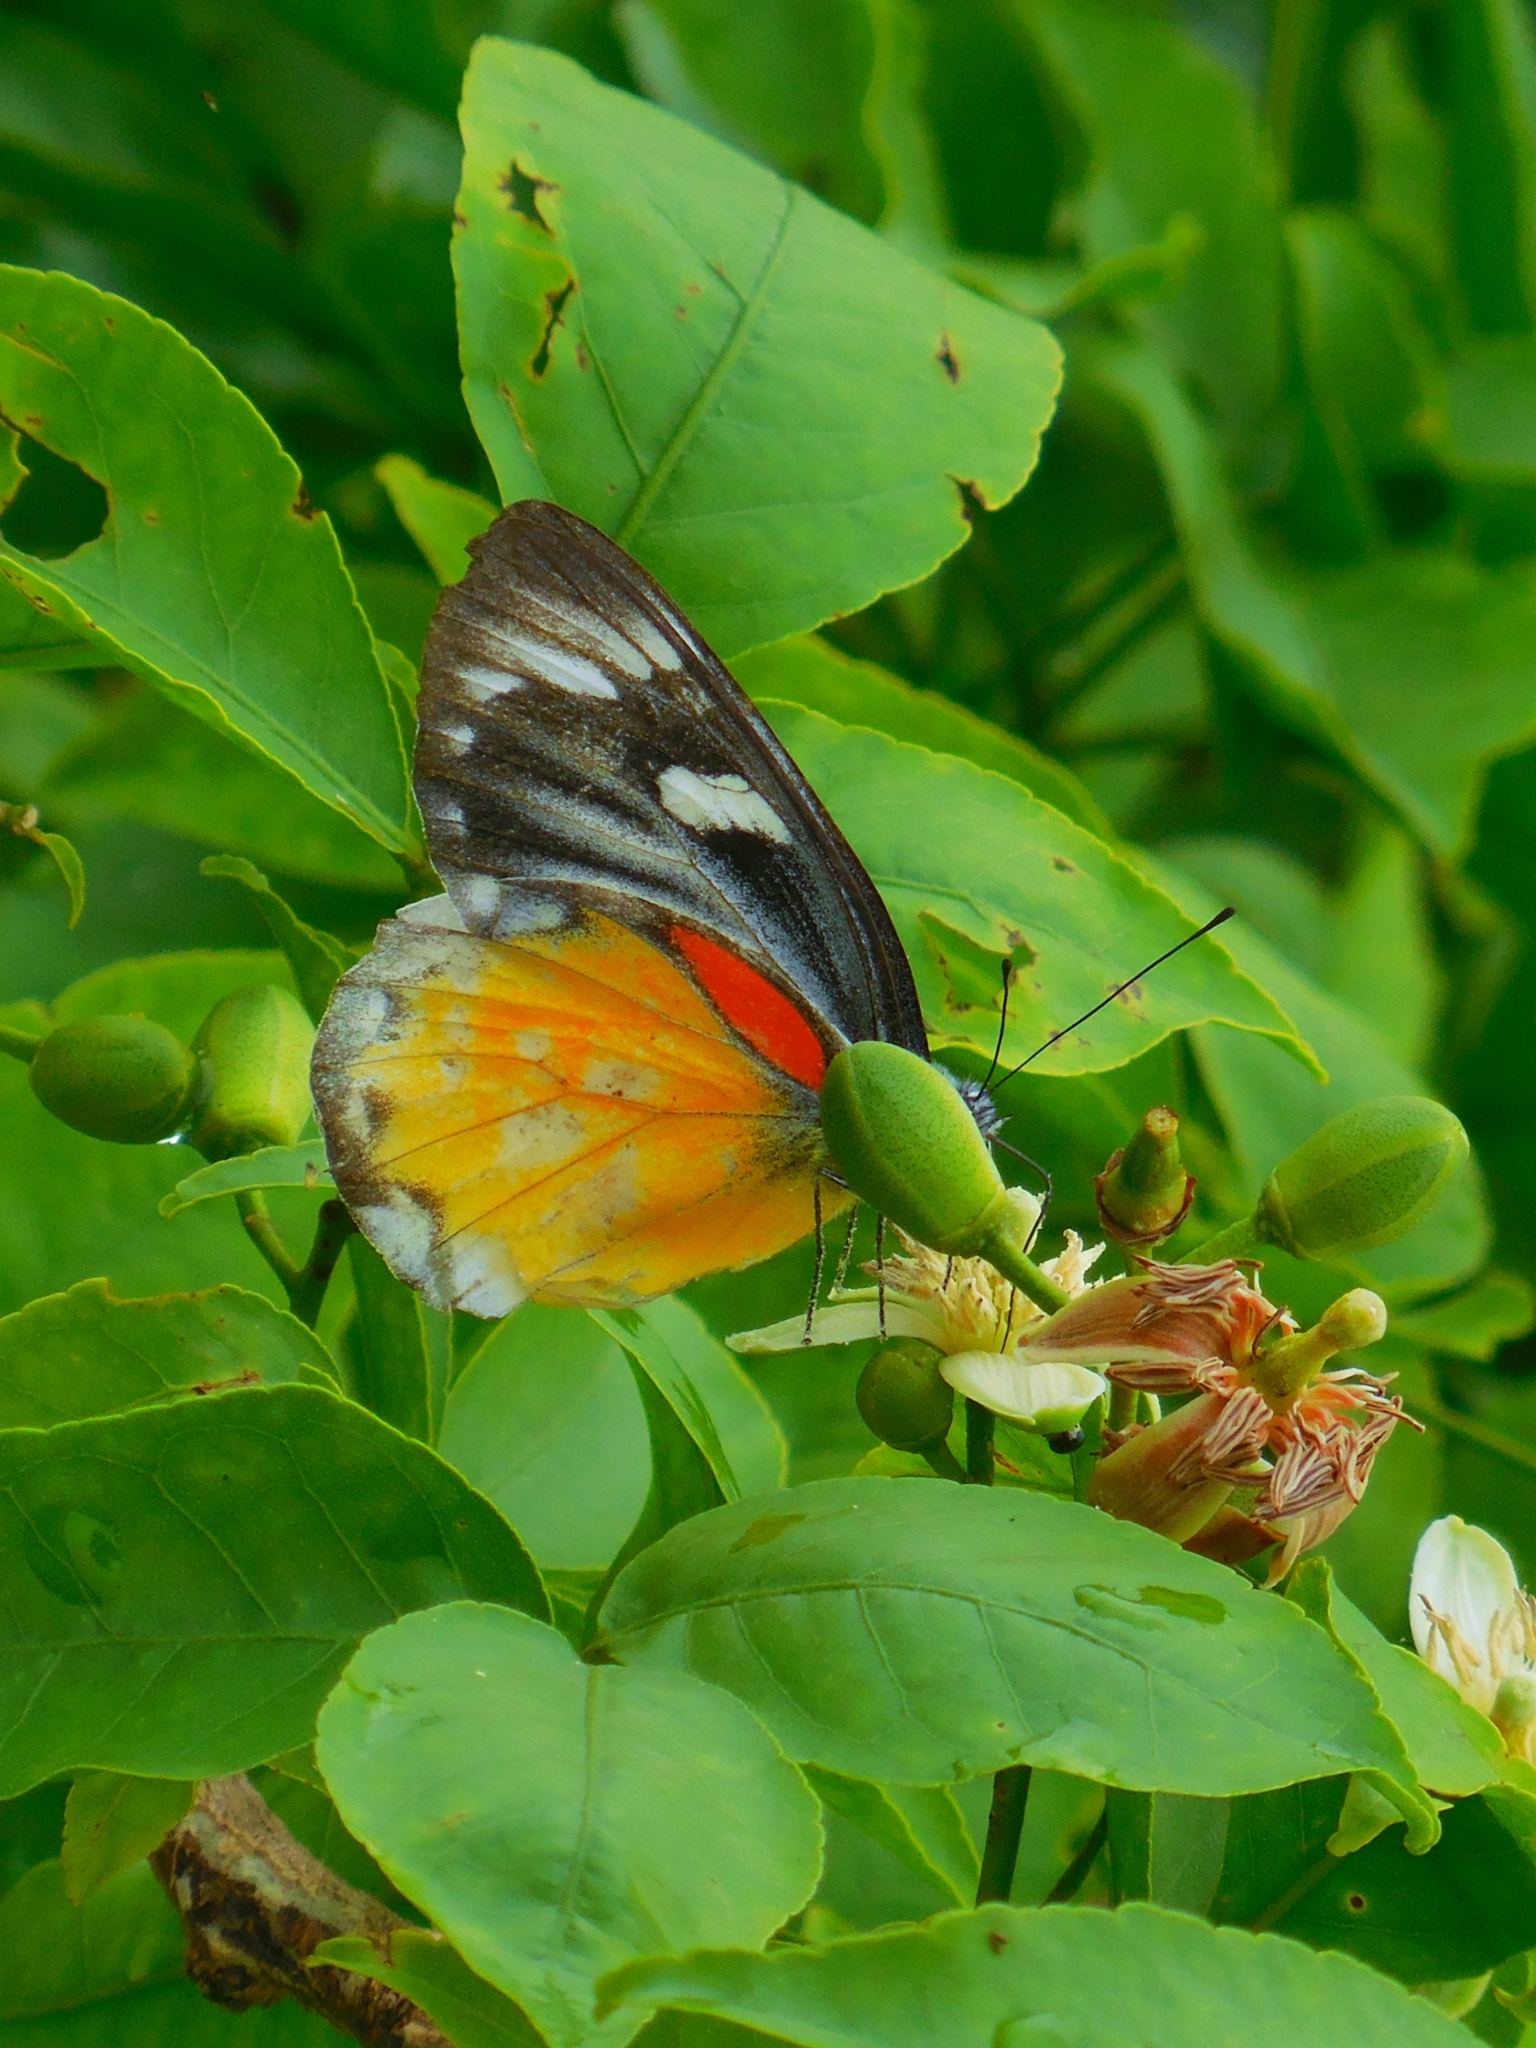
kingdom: Animalia
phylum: Arthropoda
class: Insecta
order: Lepidoptera
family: Pieridae
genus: Delias
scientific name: Delias descombesi
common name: Red-spot jezebel
